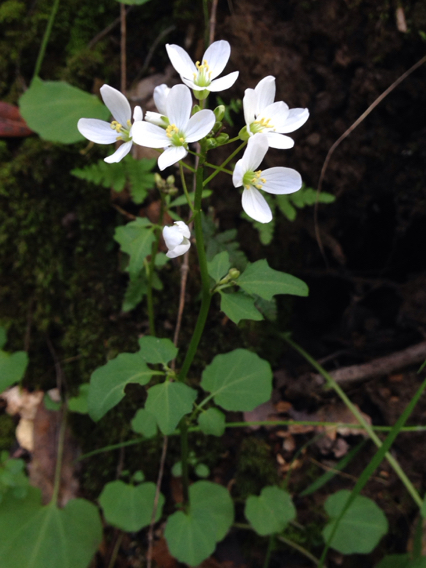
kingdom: Plantae
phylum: Tracheophyta
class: Magnoliopsida
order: Brassicales
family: Brassicaceae
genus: Cardamine
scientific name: Cardamine californica
